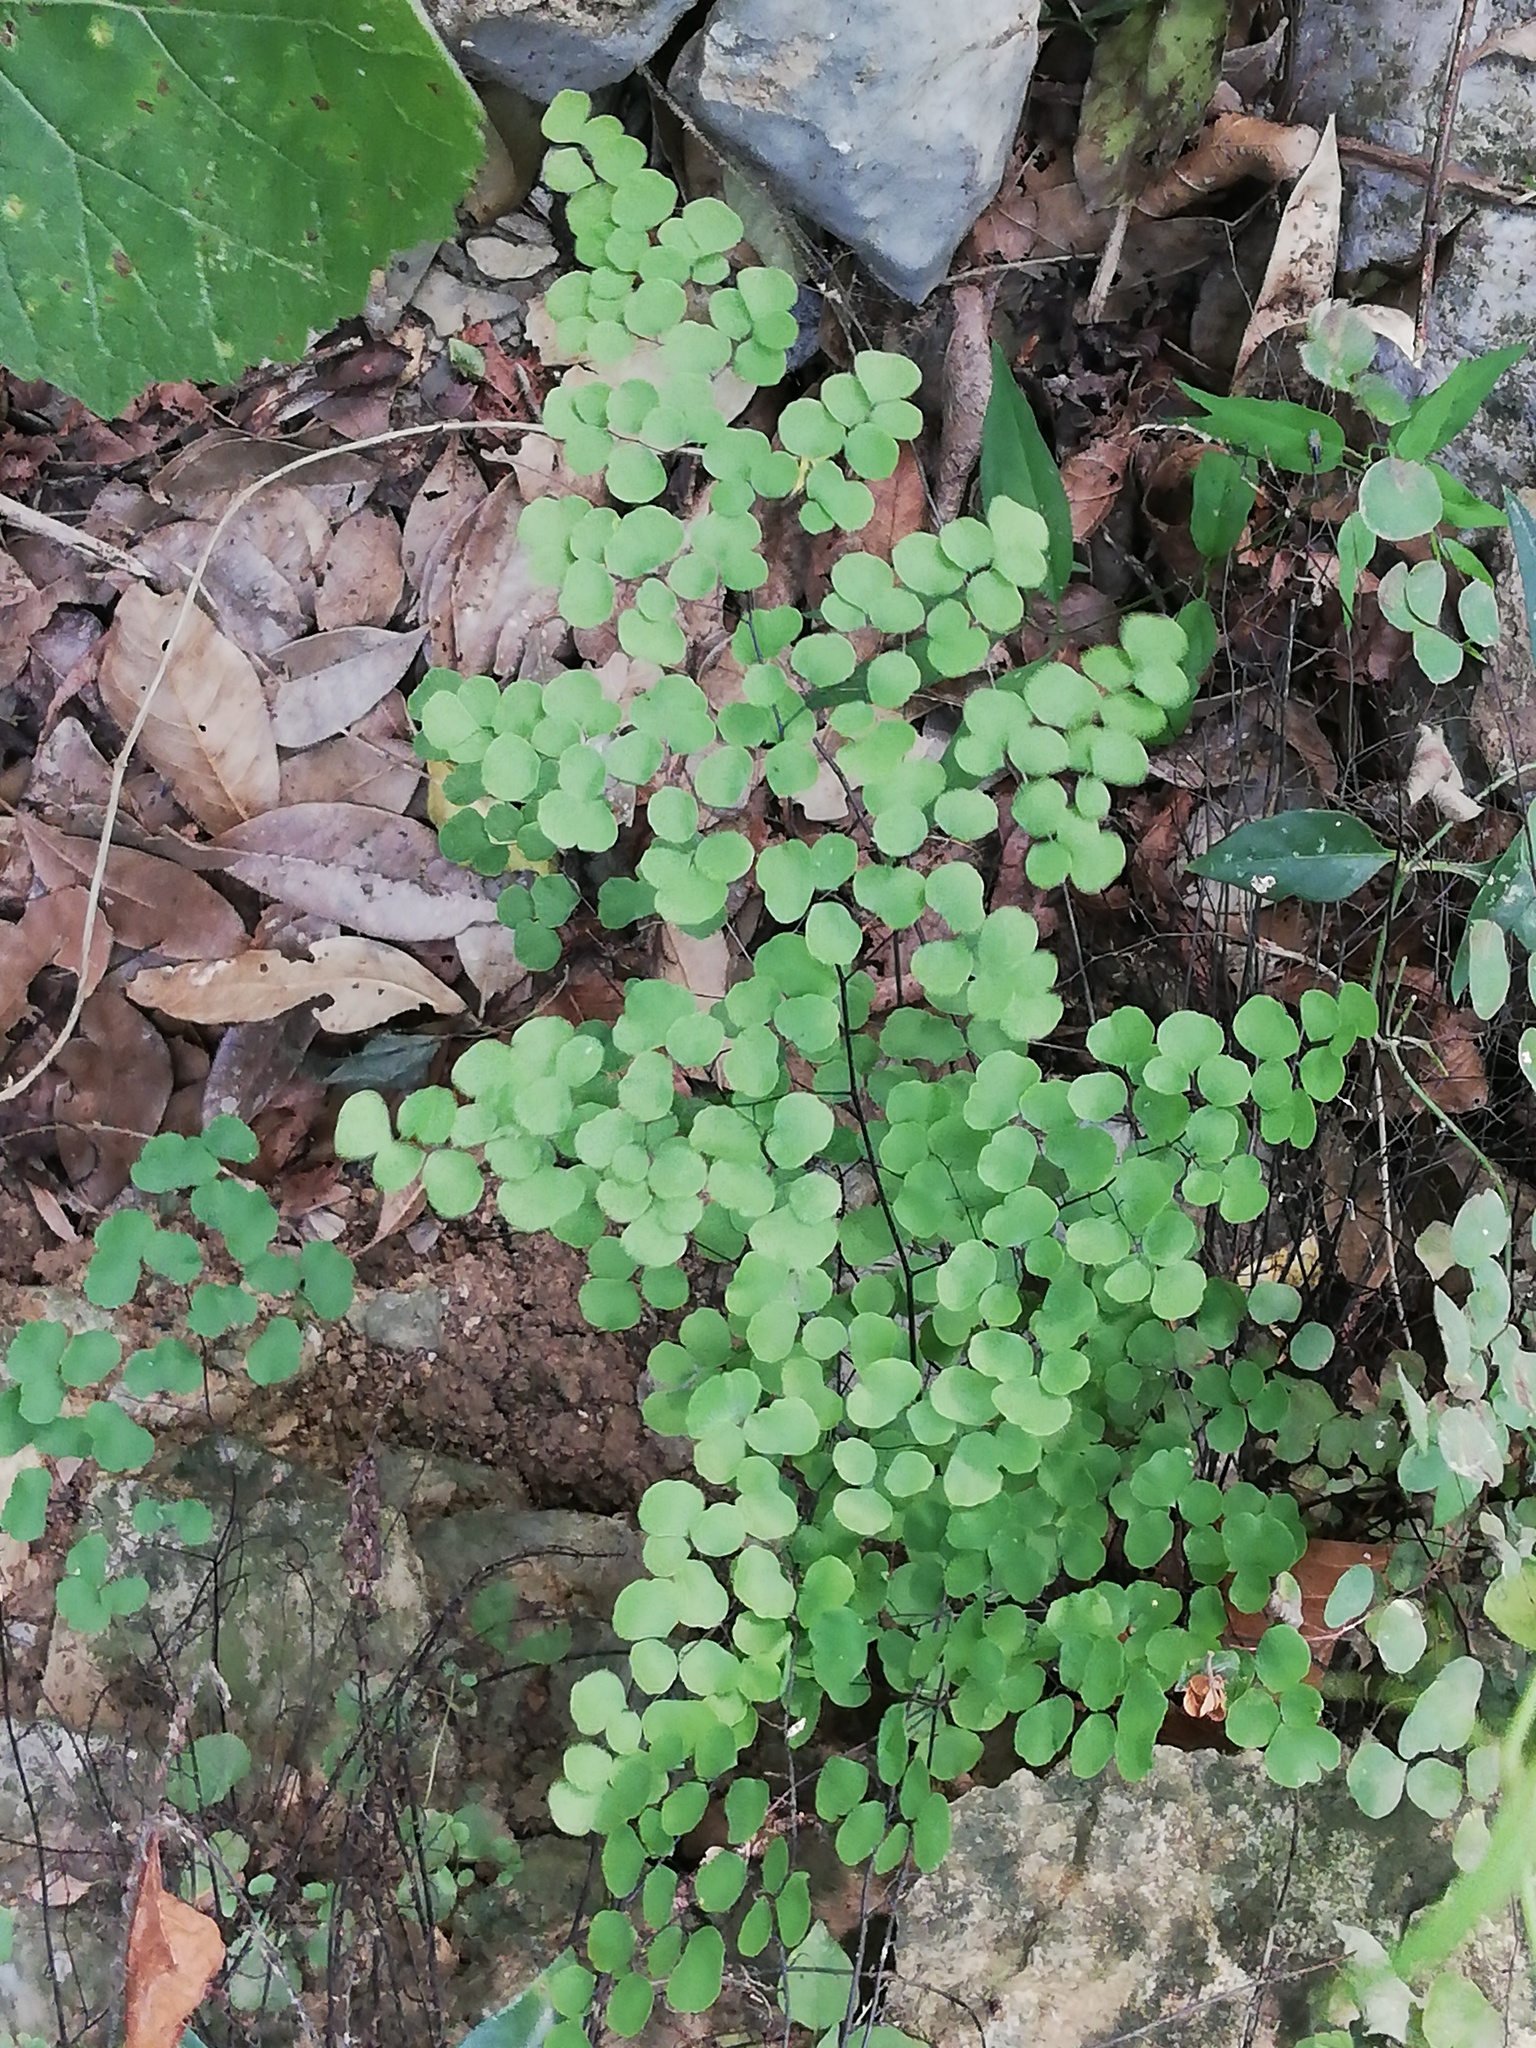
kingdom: Plantae
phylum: Tracheophyta
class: Polypodiopsida
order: Polypodiales
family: Pteridaceae
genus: Adiantum
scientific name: Adiantum tricholepis
